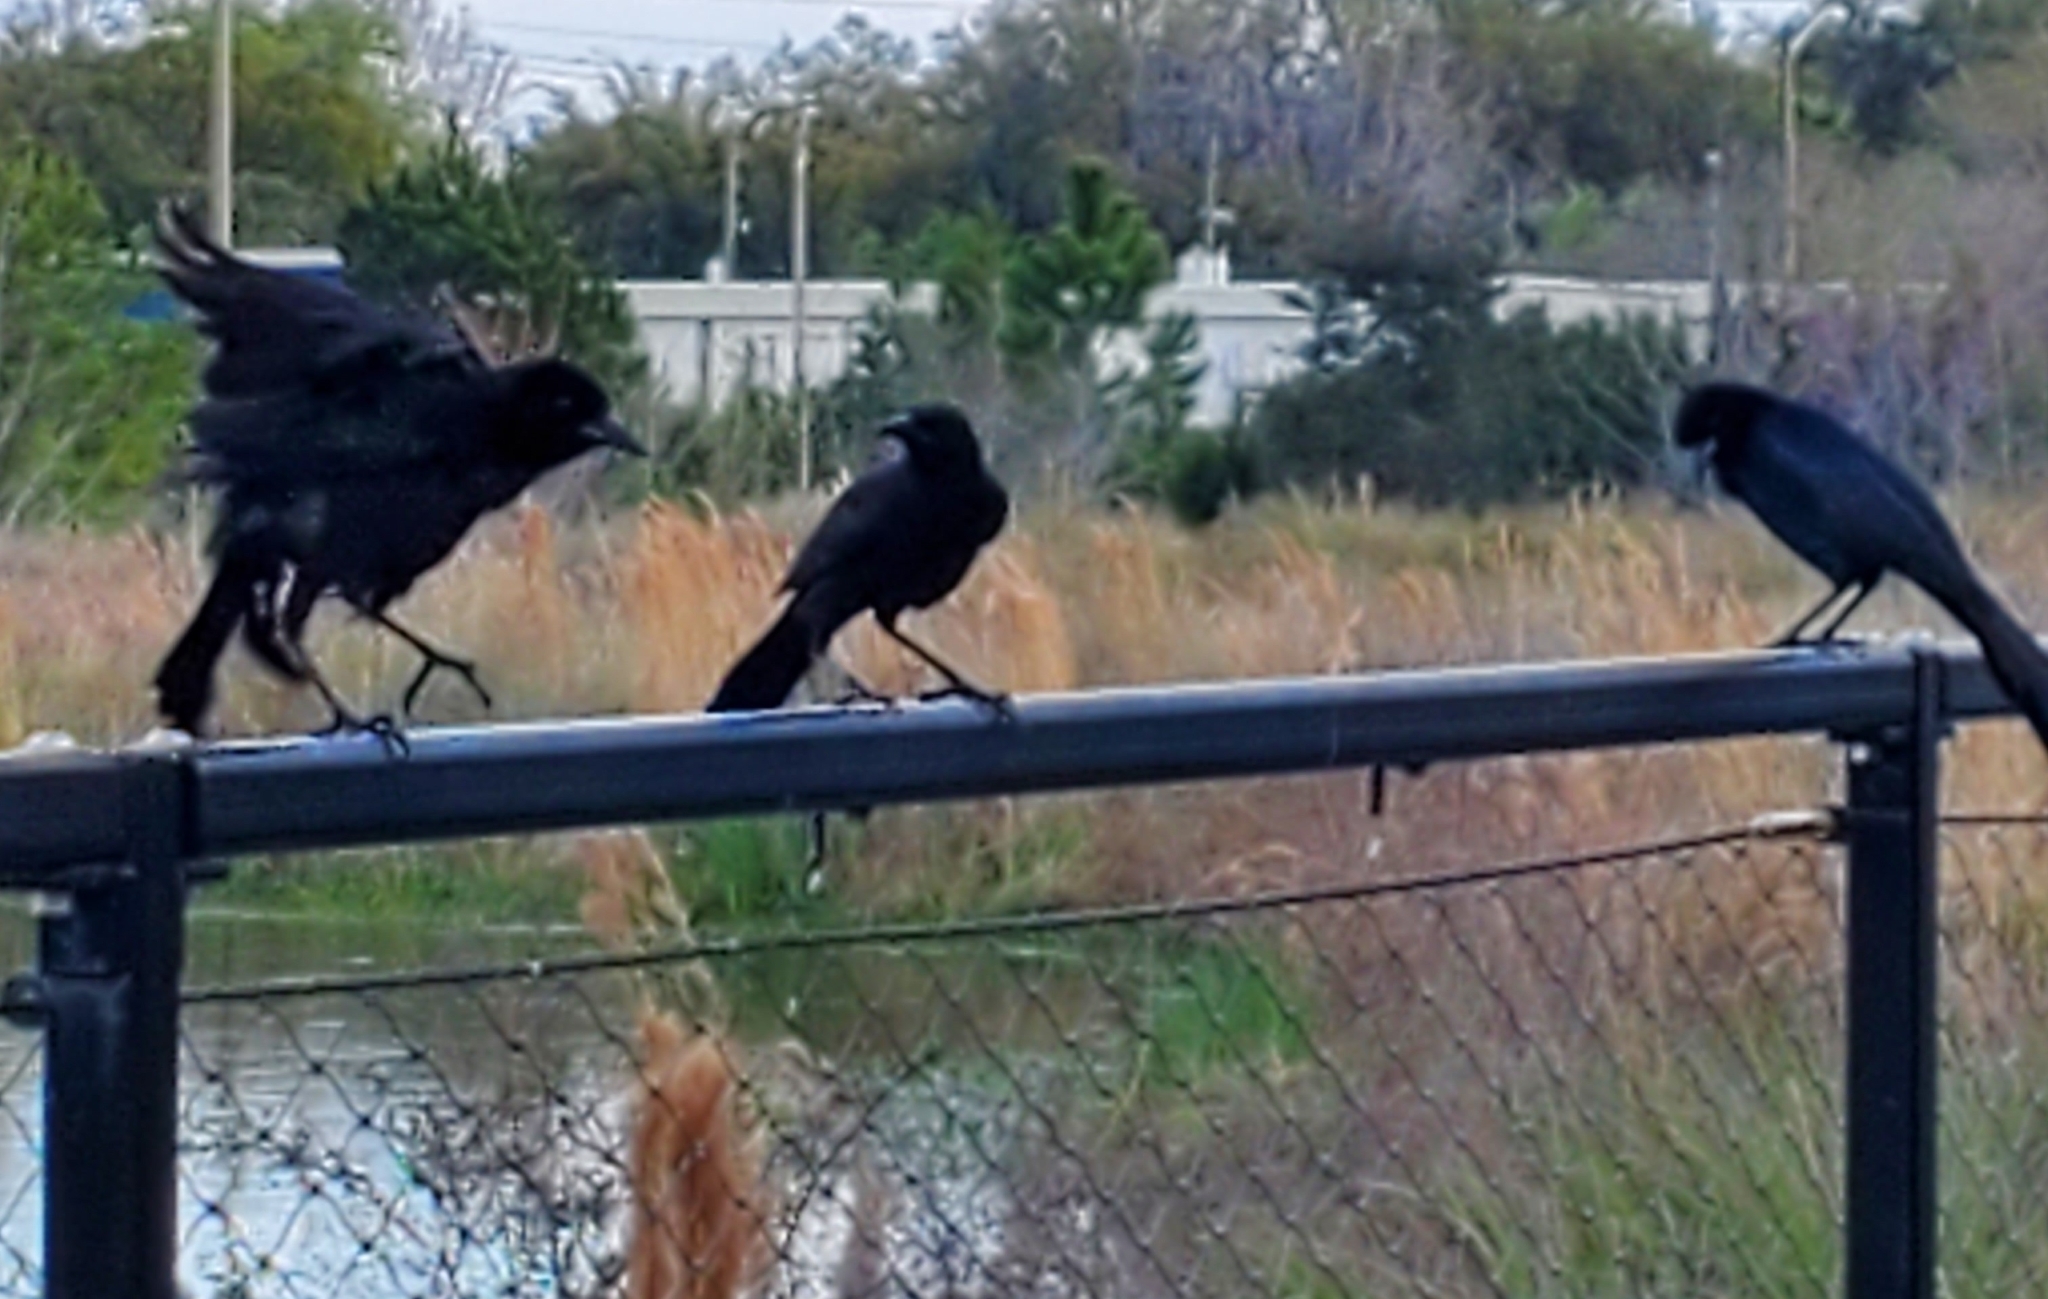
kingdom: Animalia
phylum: Chordata
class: Aves
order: Passeriformes
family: Icteridae
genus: Quiscalus
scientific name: Quiscalus major
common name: Boat-tailed grackle
